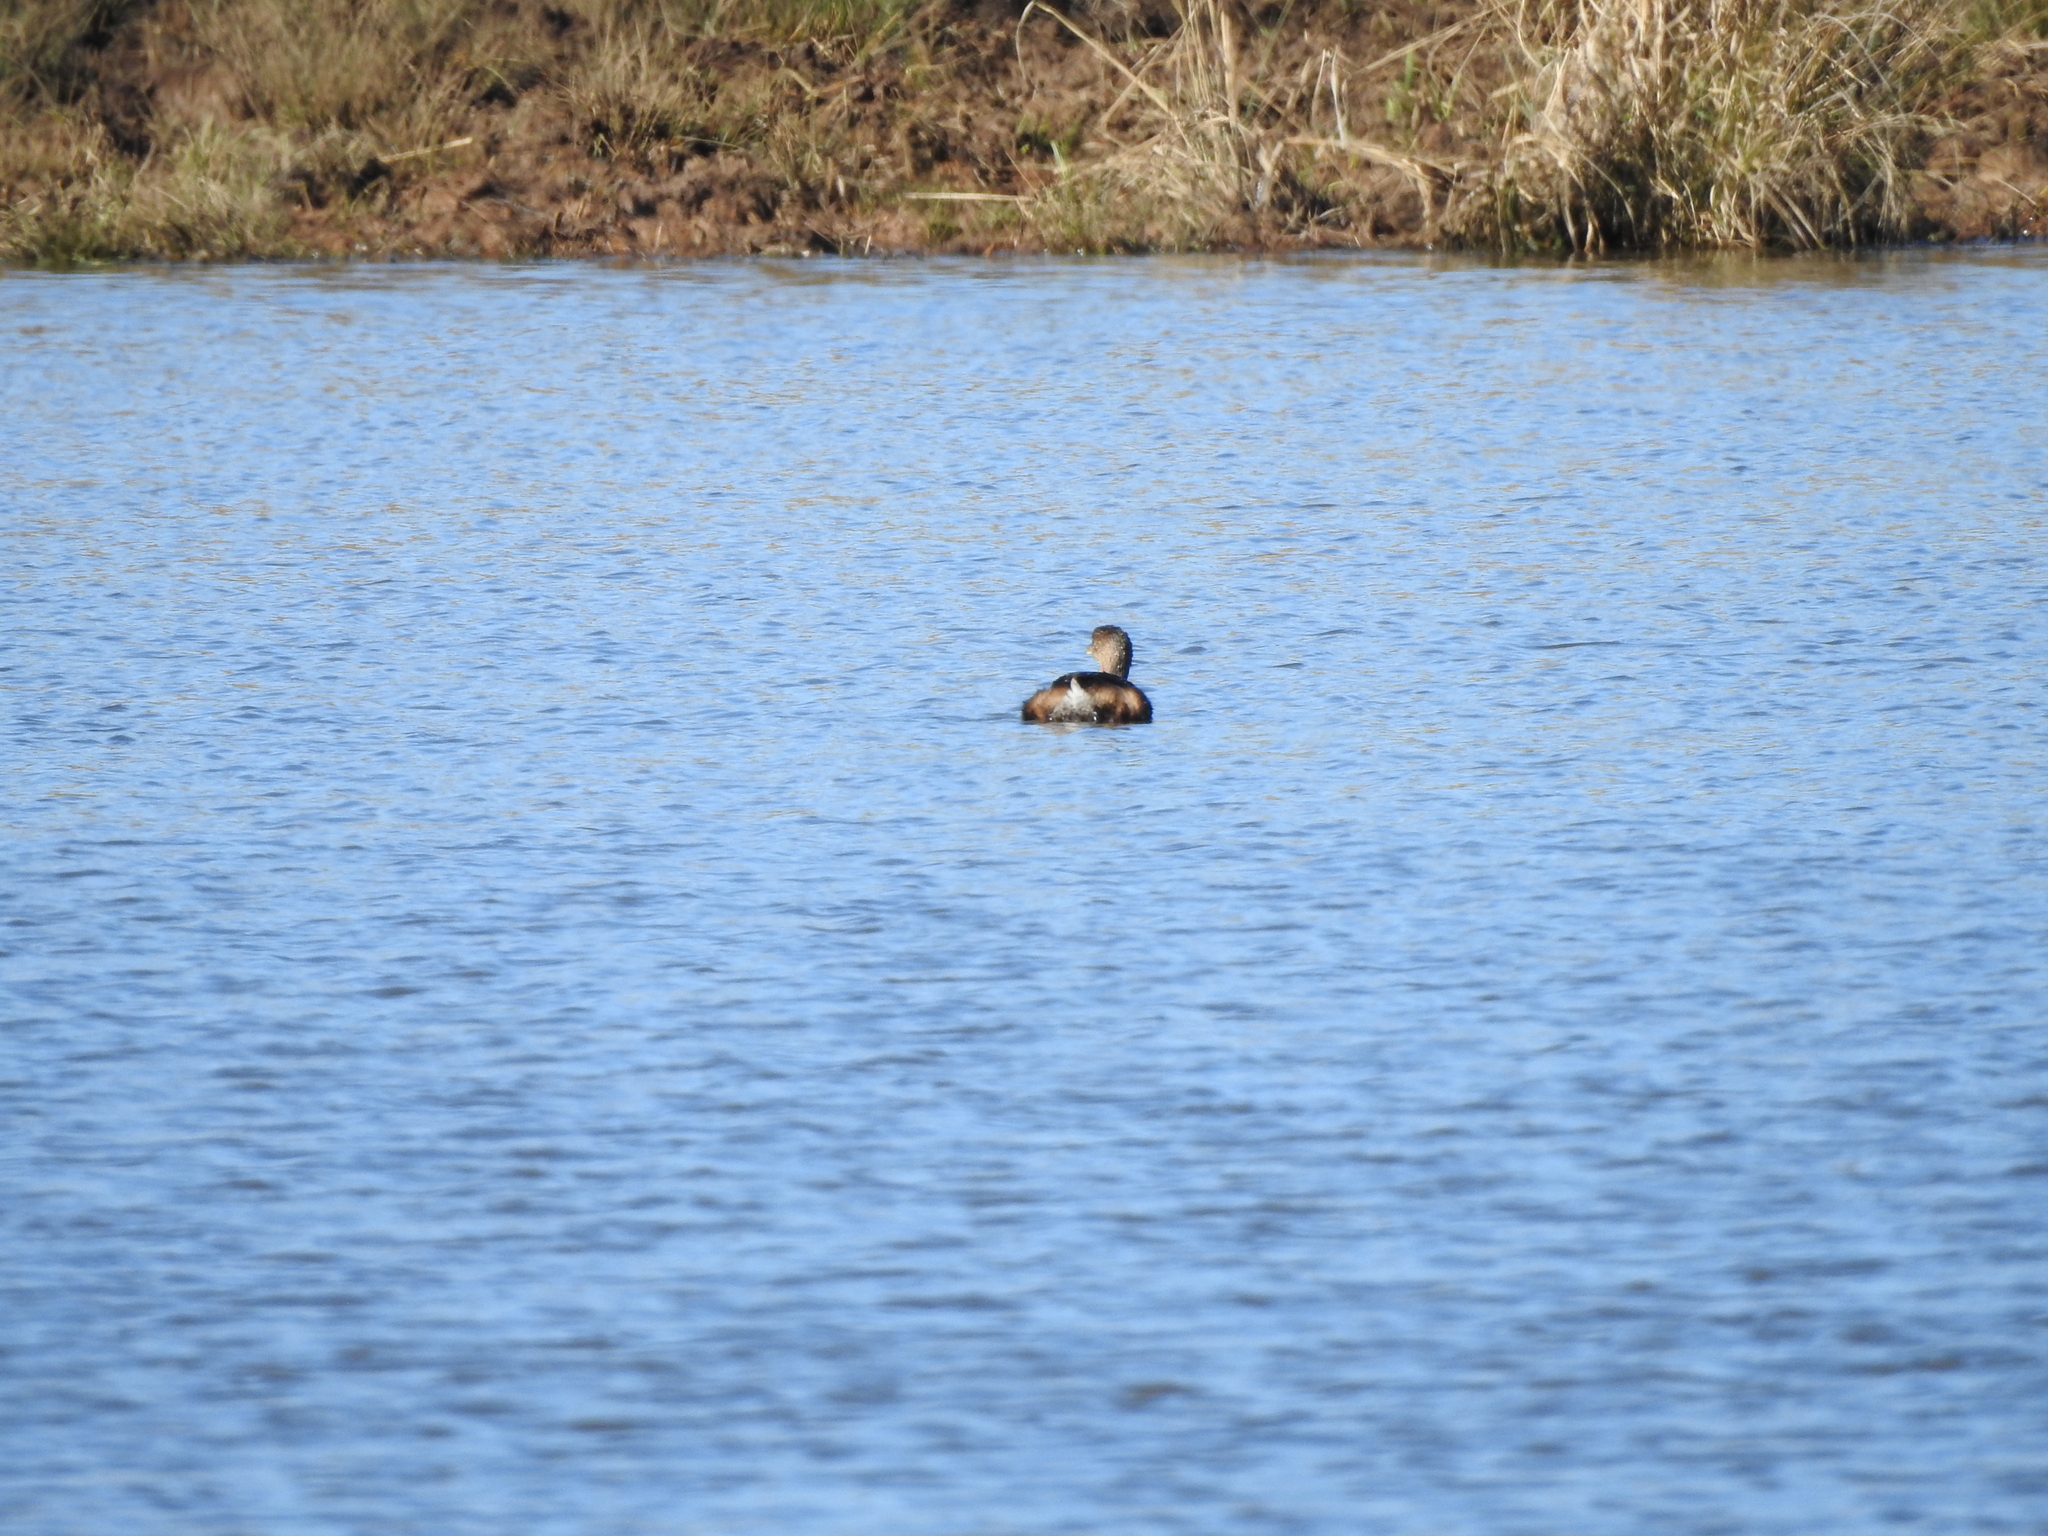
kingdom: Animalia
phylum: Chordata
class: Aves
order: Podicipediformes
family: Podicipedidae
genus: Podilymbus
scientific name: Podilymbus podiceps
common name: Pied-billed grebe
